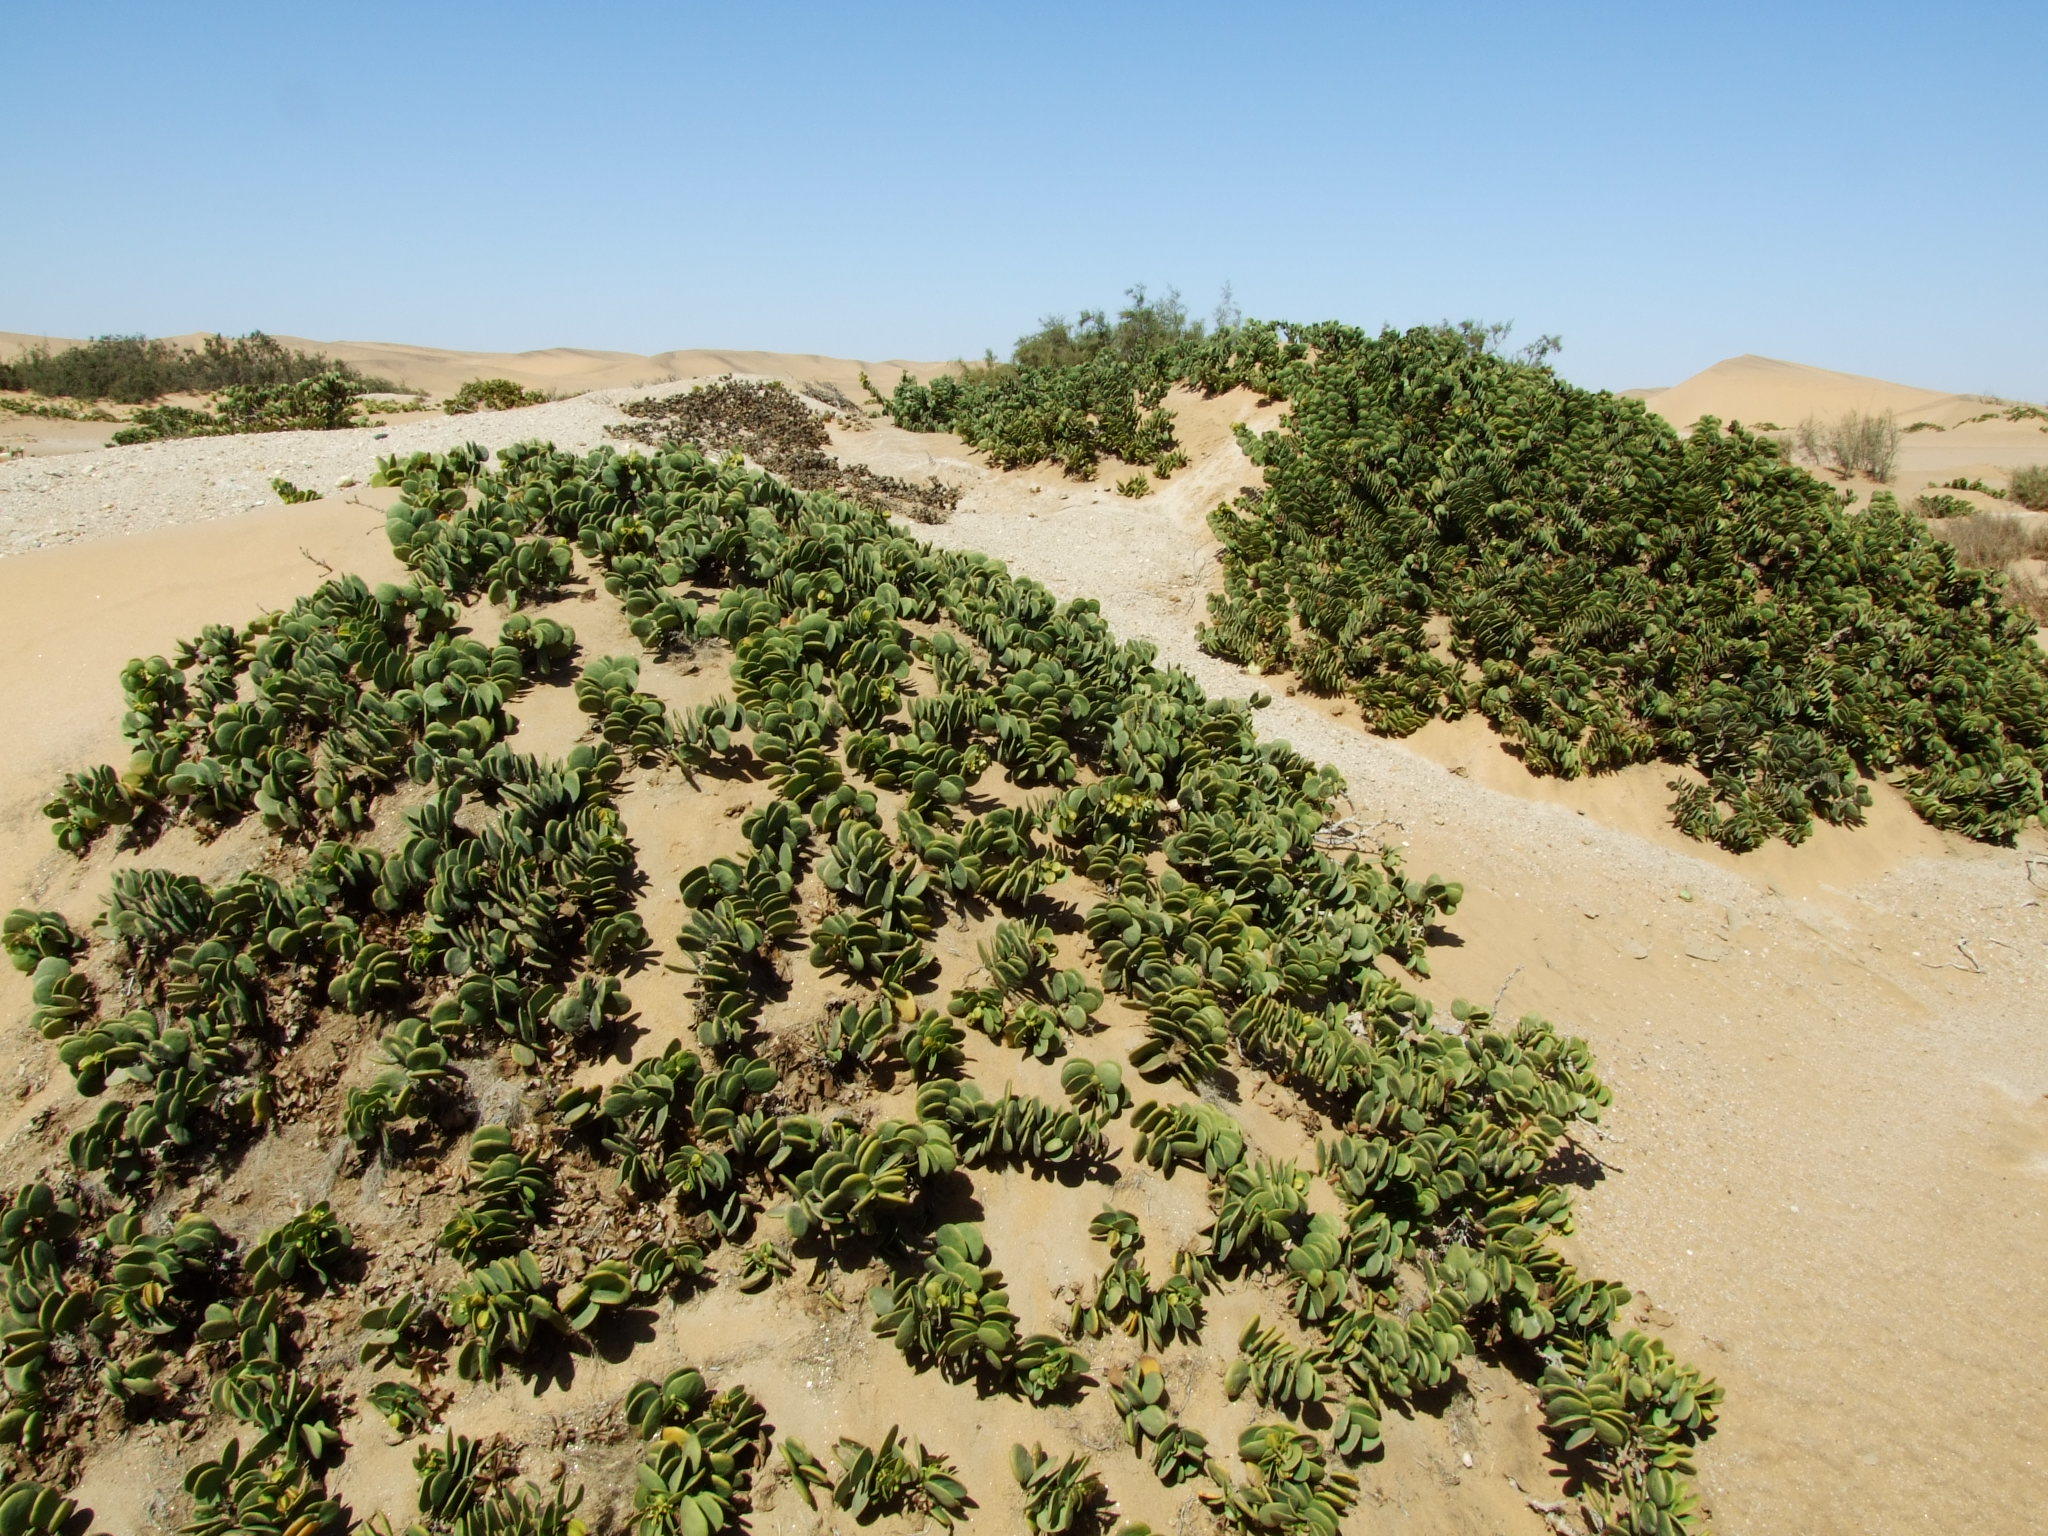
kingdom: Plantae
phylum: Tracheophyta
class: Magnoliopsida
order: Zygophyllales
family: Zygophyllaceae
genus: Tetraena
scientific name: Tetraena stapfii
